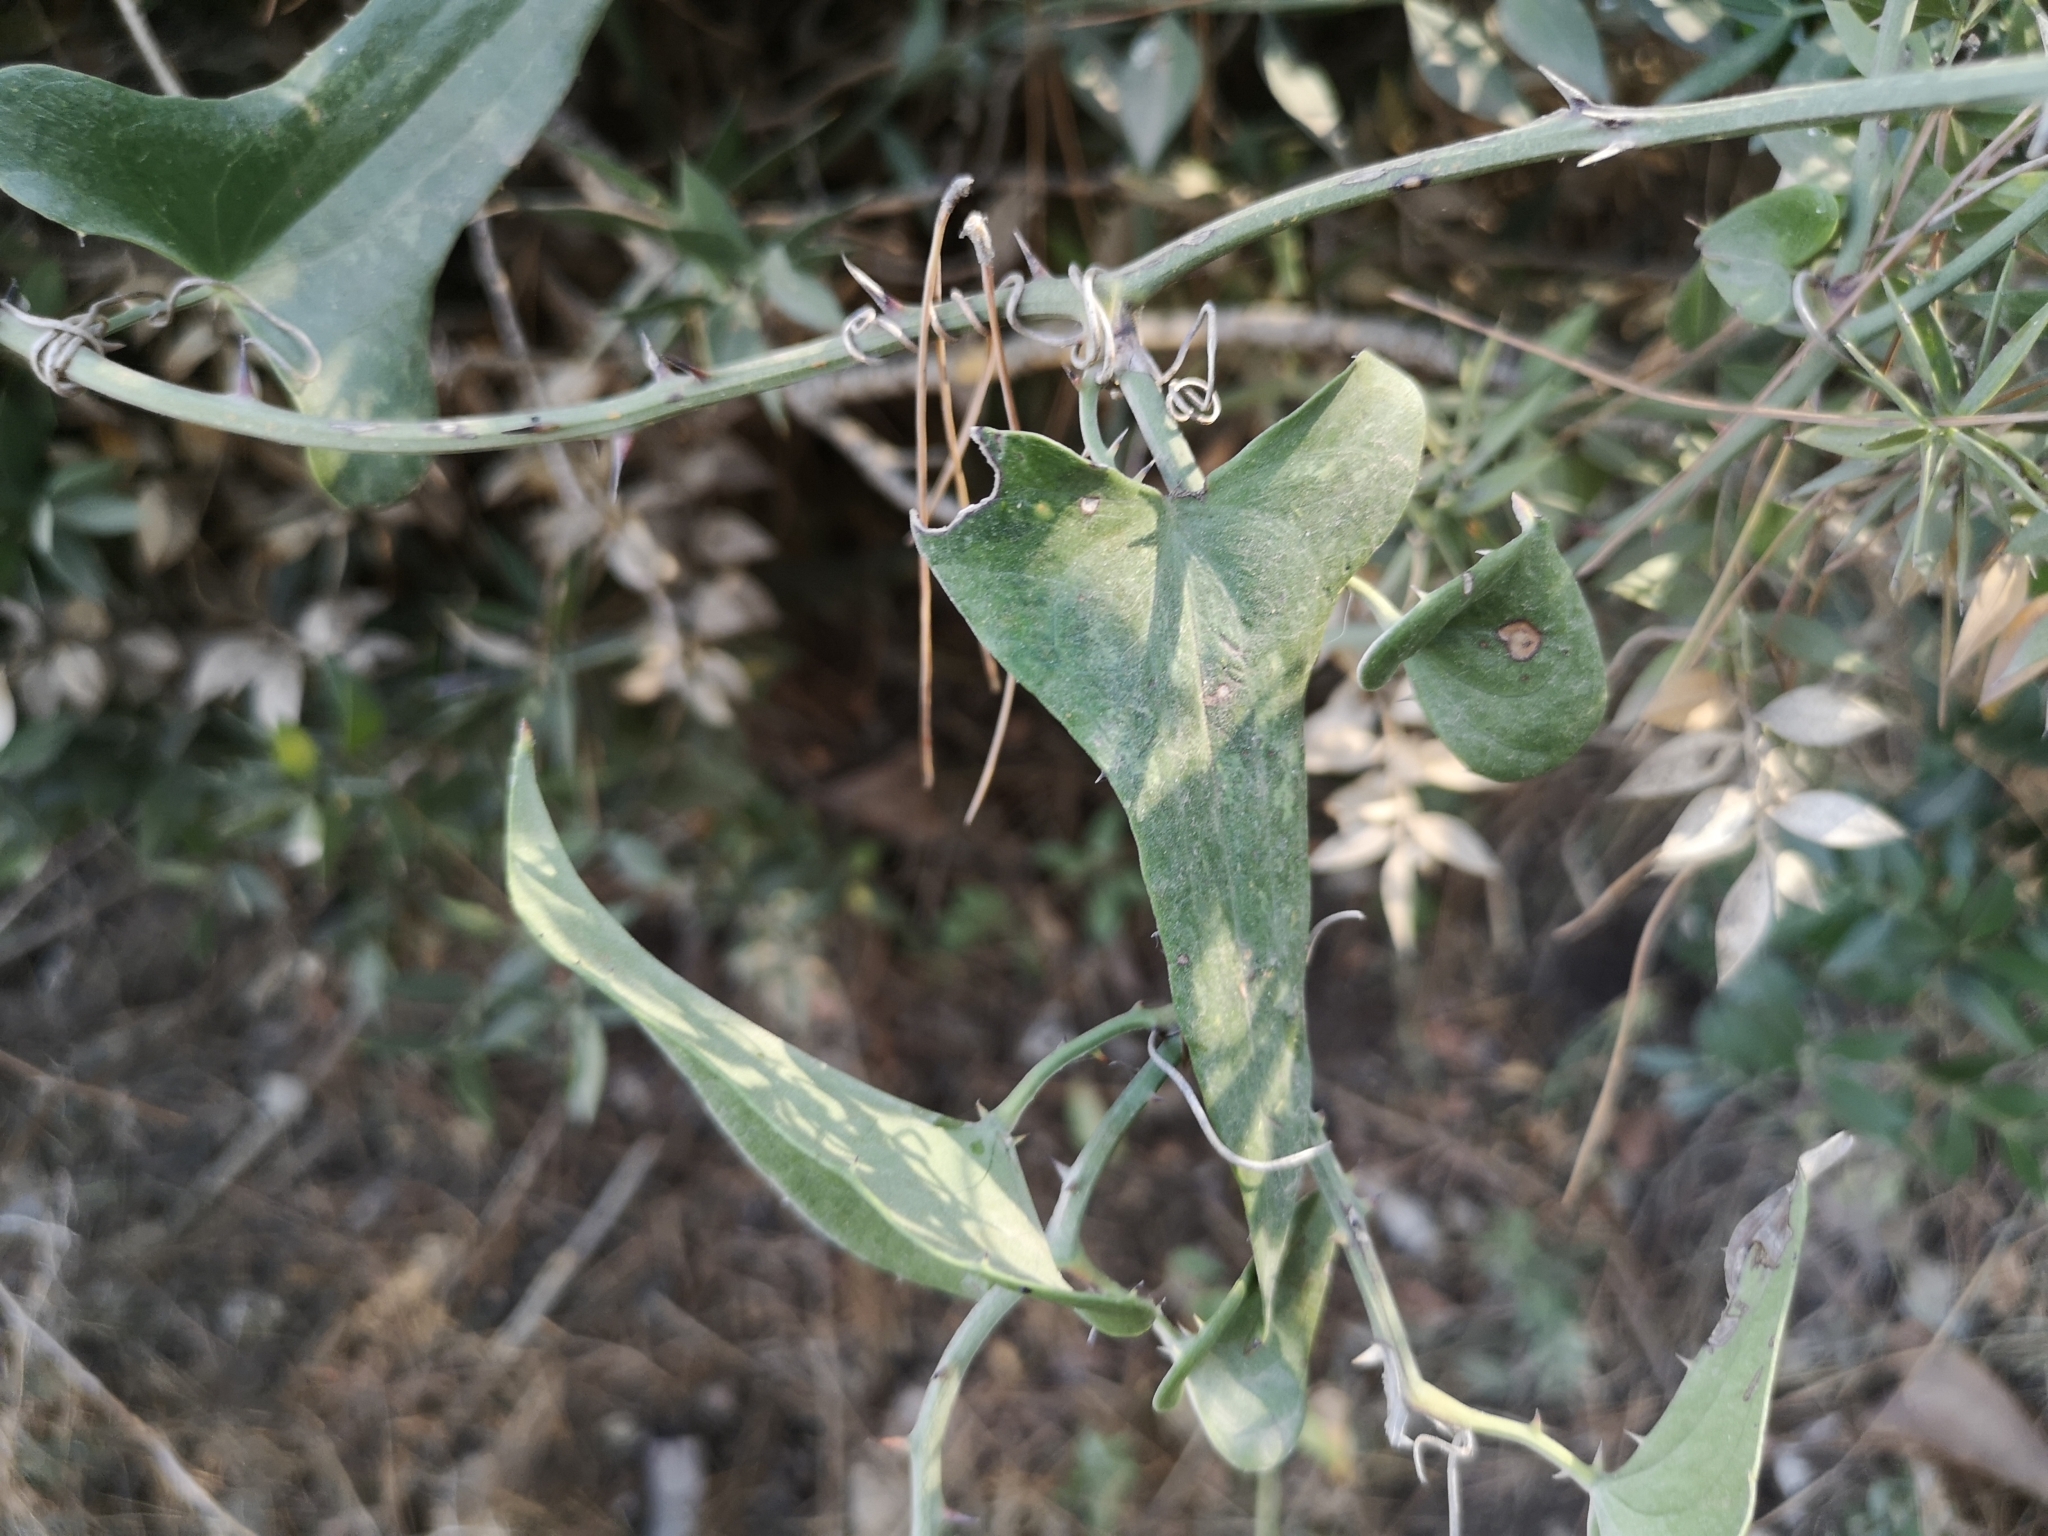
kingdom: Plantae
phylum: Tracheophyta
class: Liliopsida
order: Liliales
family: Smilacaceae
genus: Smilax
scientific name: Smilax aspera
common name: Common smilax
